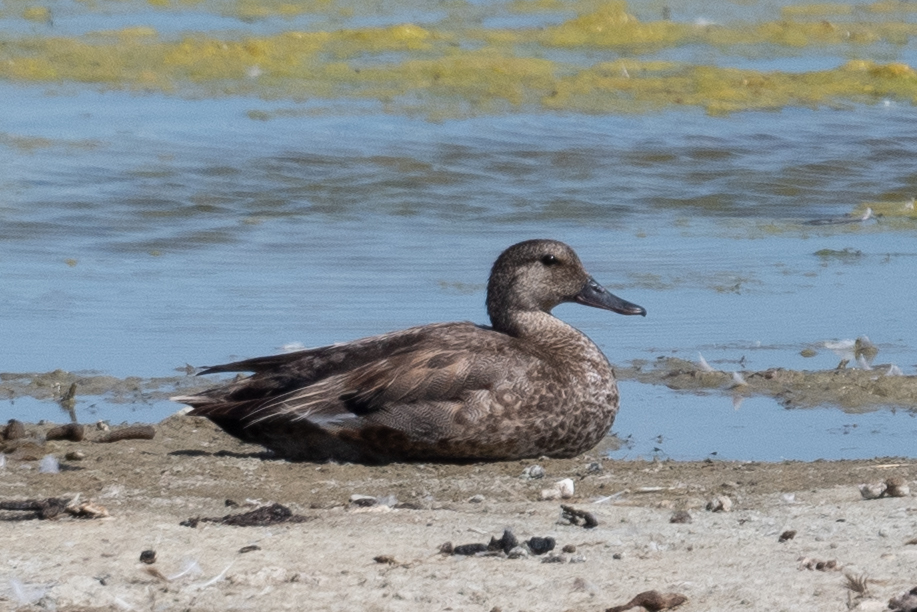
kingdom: Animalia
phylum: Chordata
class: Aves
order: Anseriformes
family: Anatidae
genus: Mareca
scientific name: Mareca strepera
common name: Gadwall
